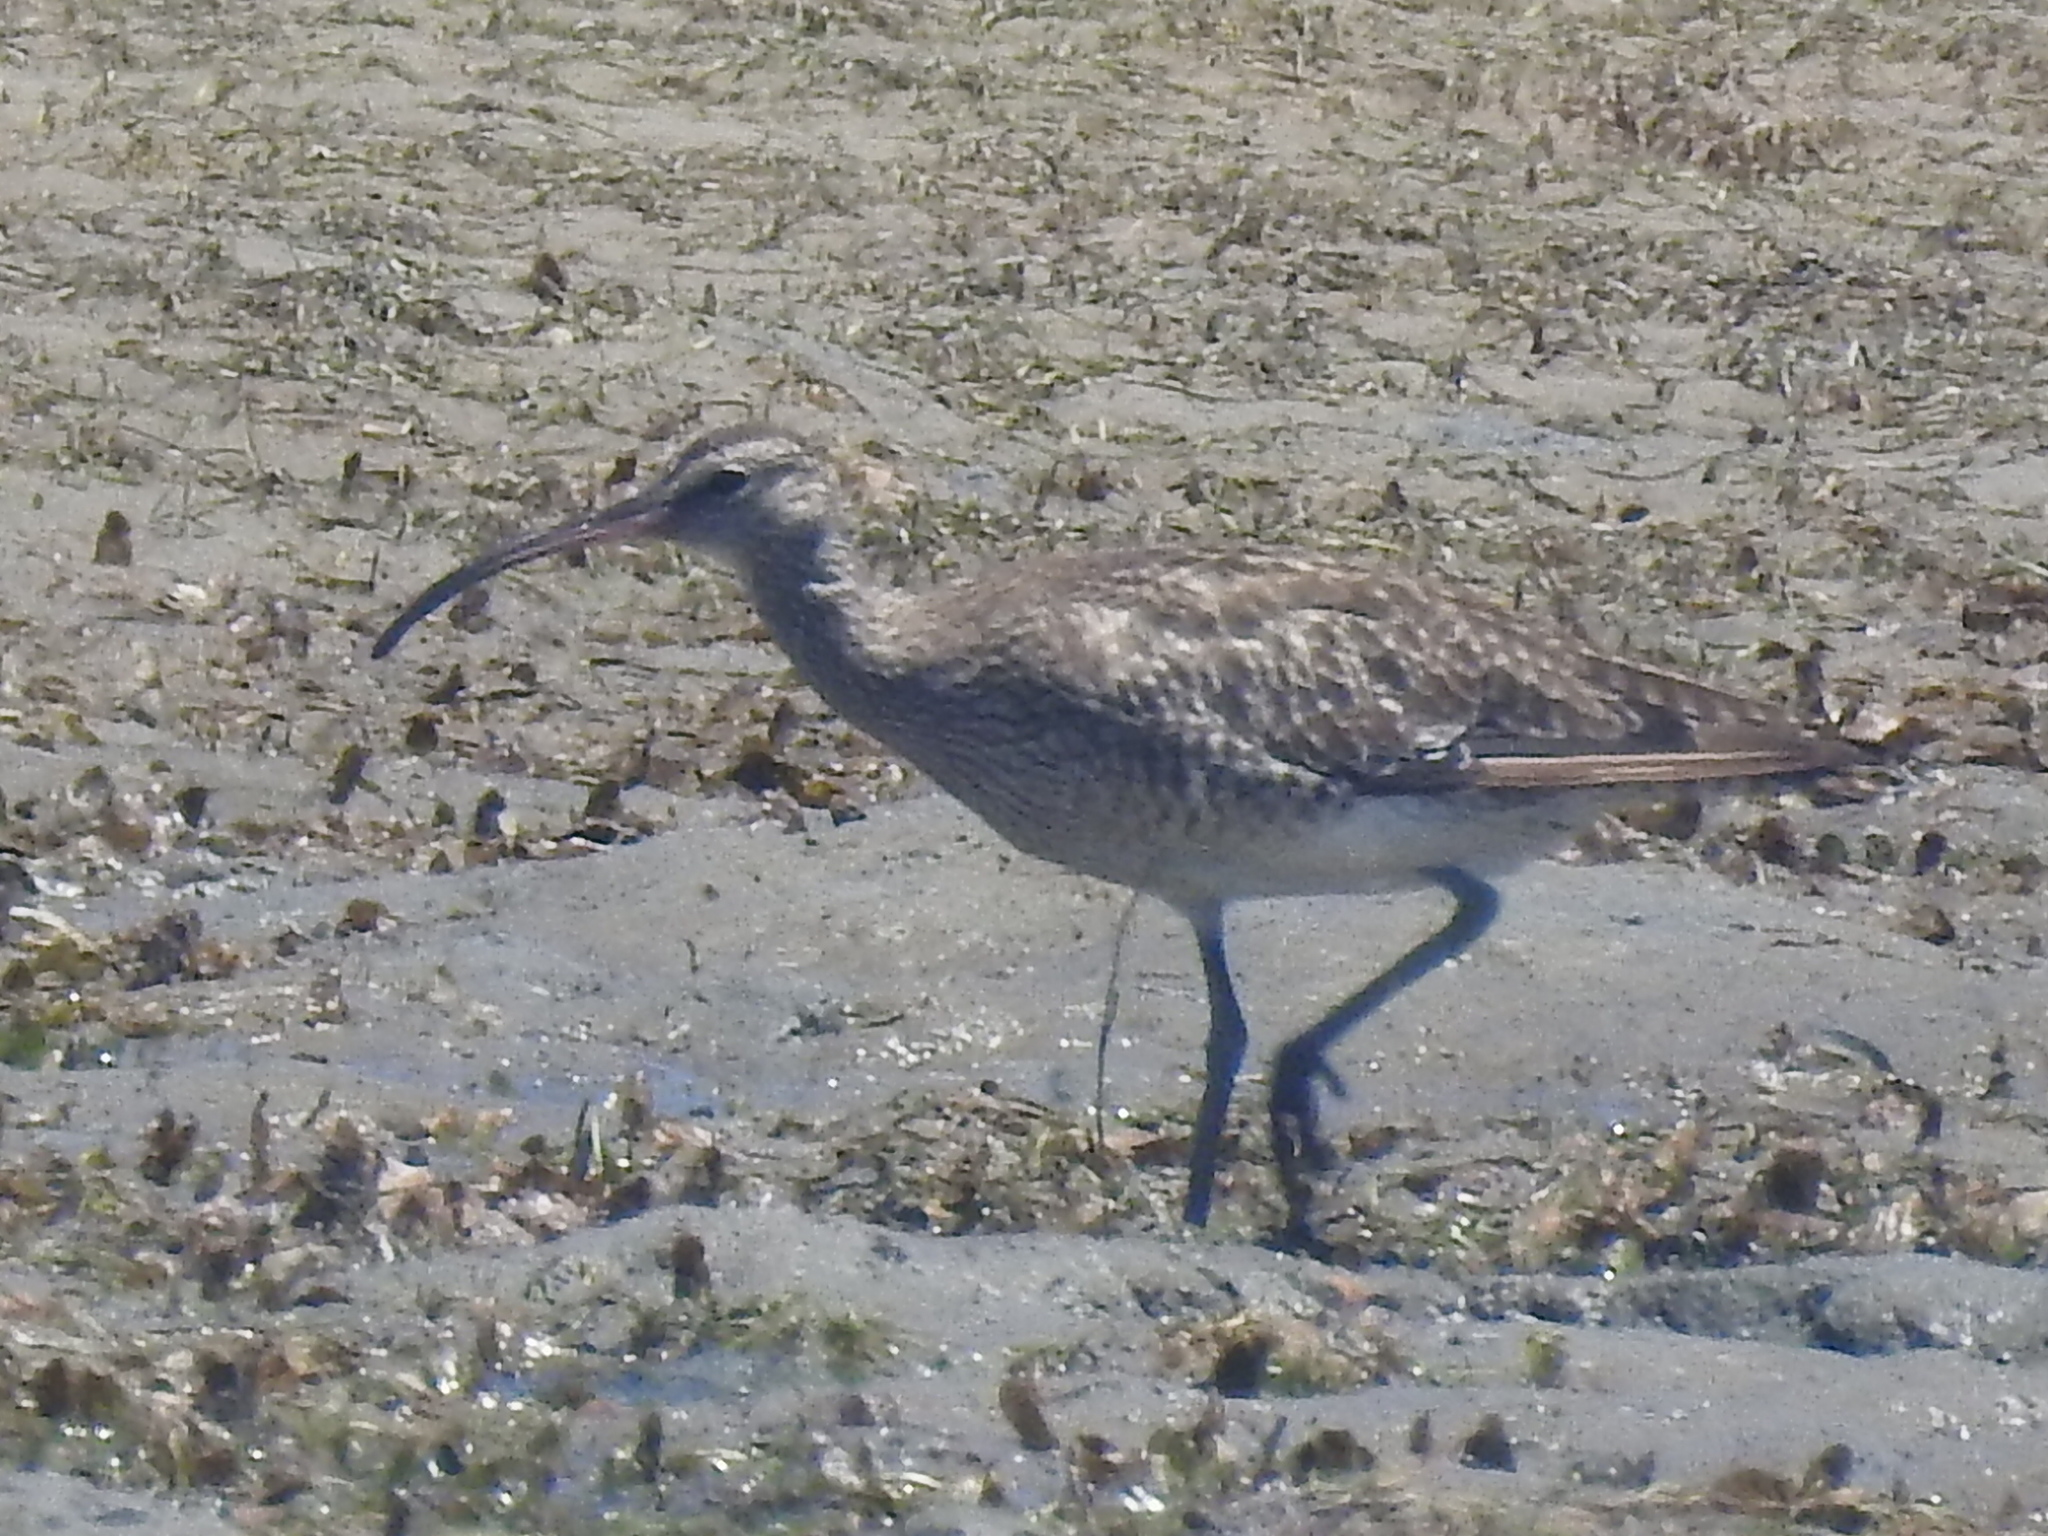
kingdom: Animalia
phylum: Chordata
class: Aves
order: Charadriiformes
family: Scolopacidae
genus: Numenius
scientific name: Numenius phaeopus
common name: Whimbrel
